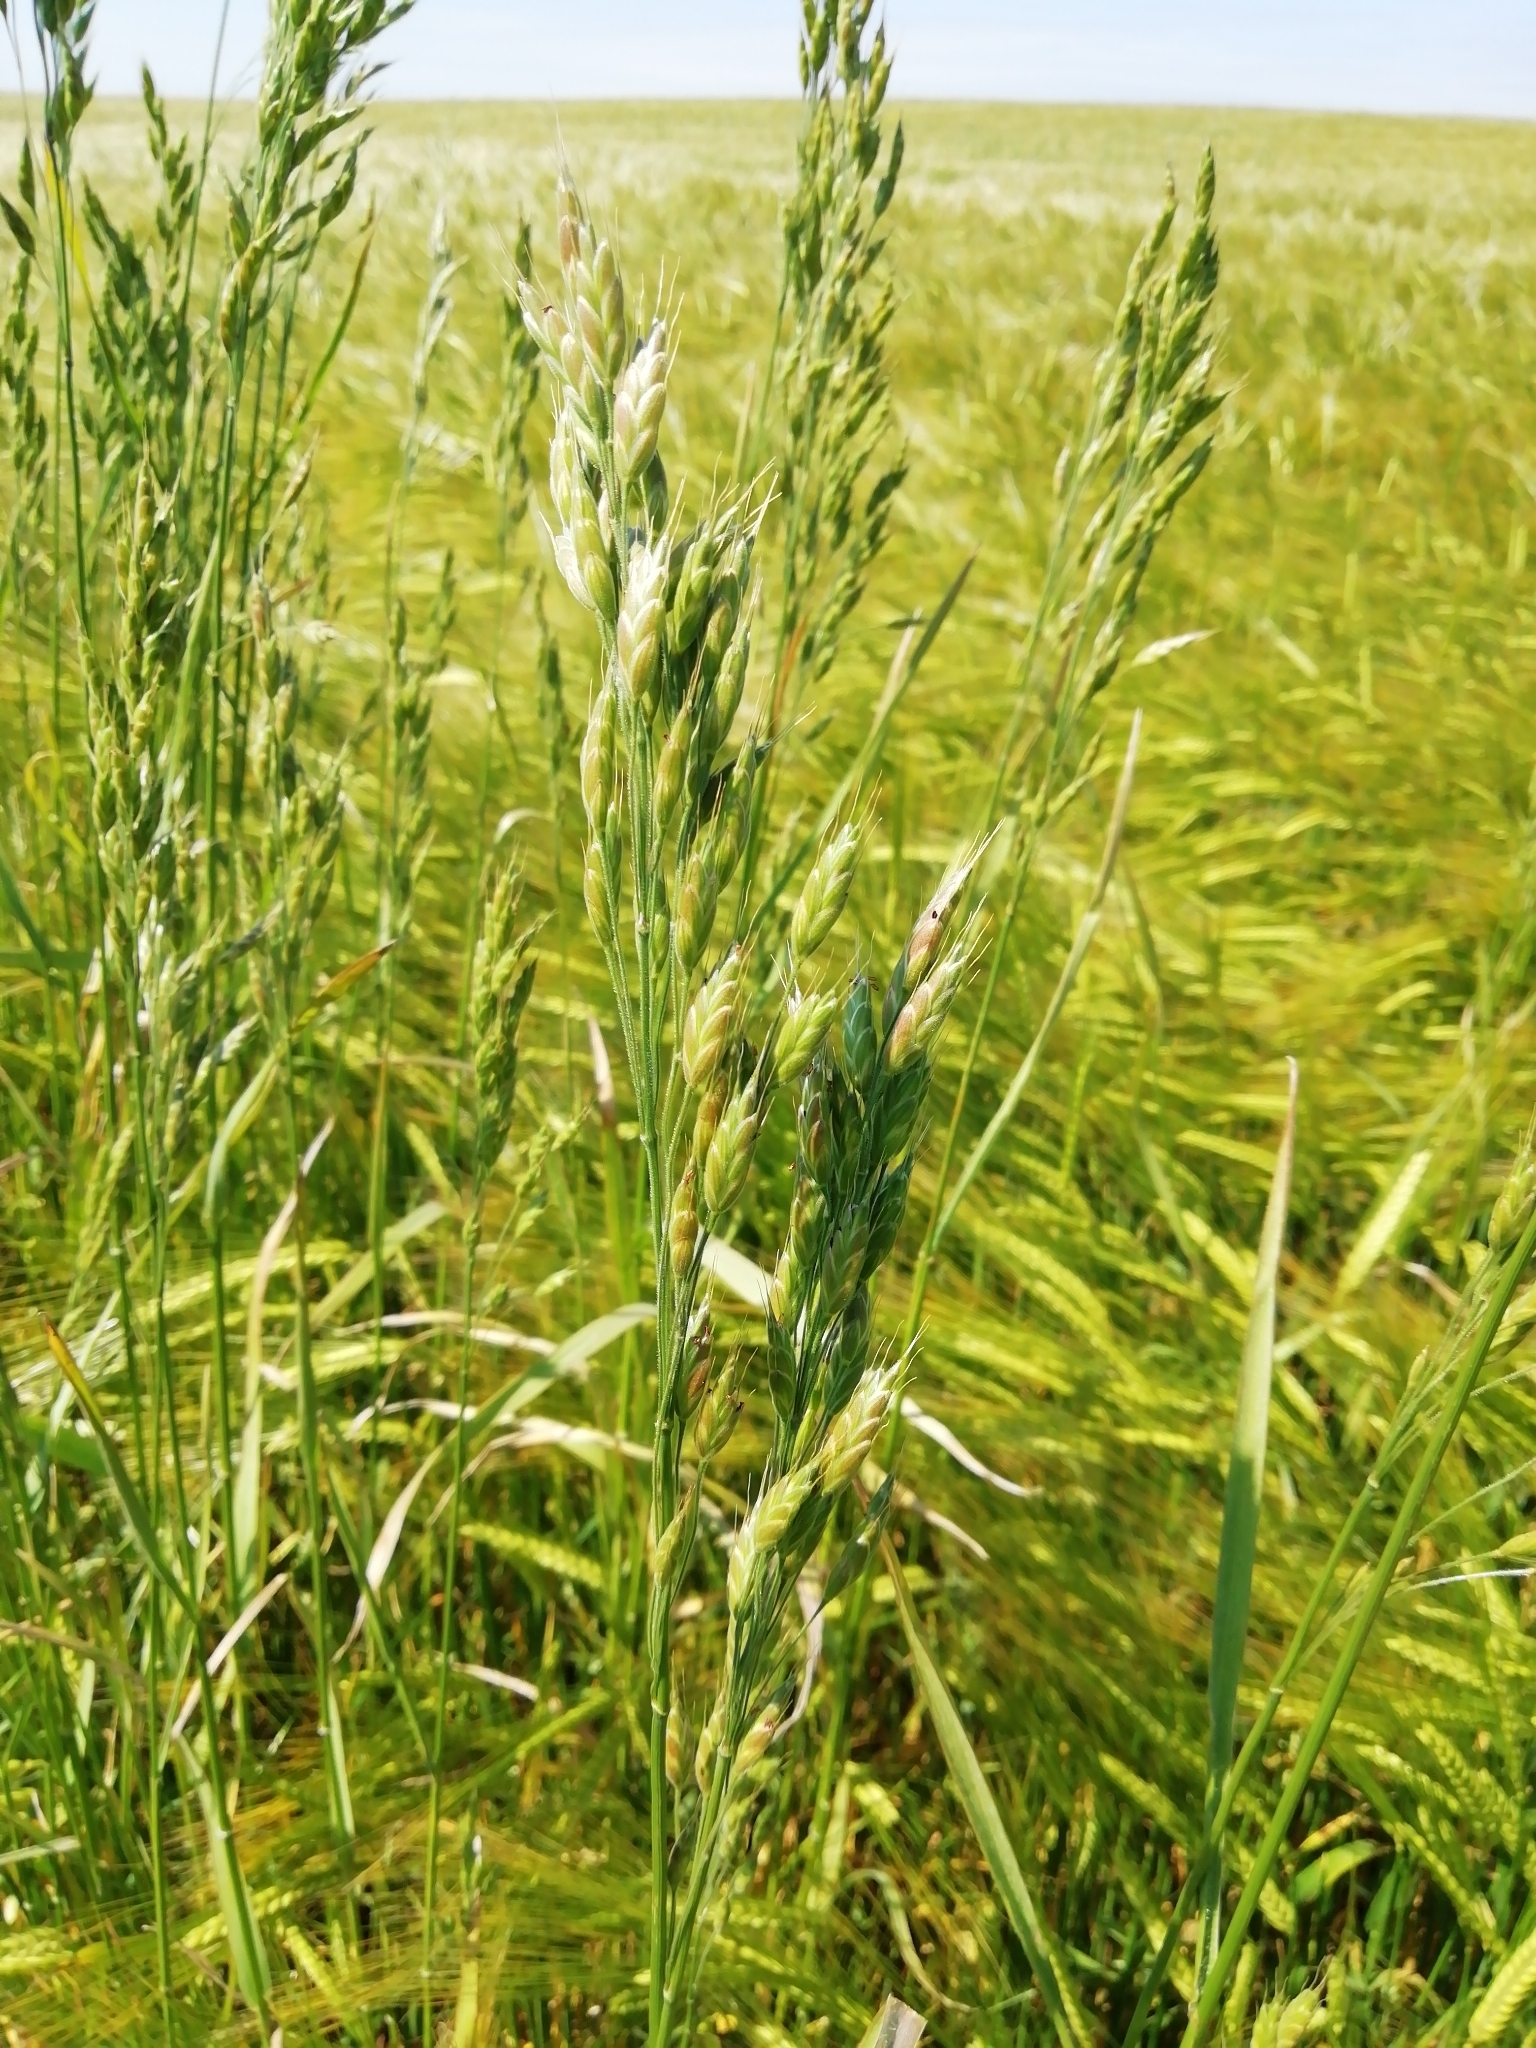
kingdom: Plantae
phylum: Tracheophyta
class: Liliopsida
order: Poales
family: Poaceae
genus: Bromus
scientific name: Bromus hordeaceus
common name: Soft brome
